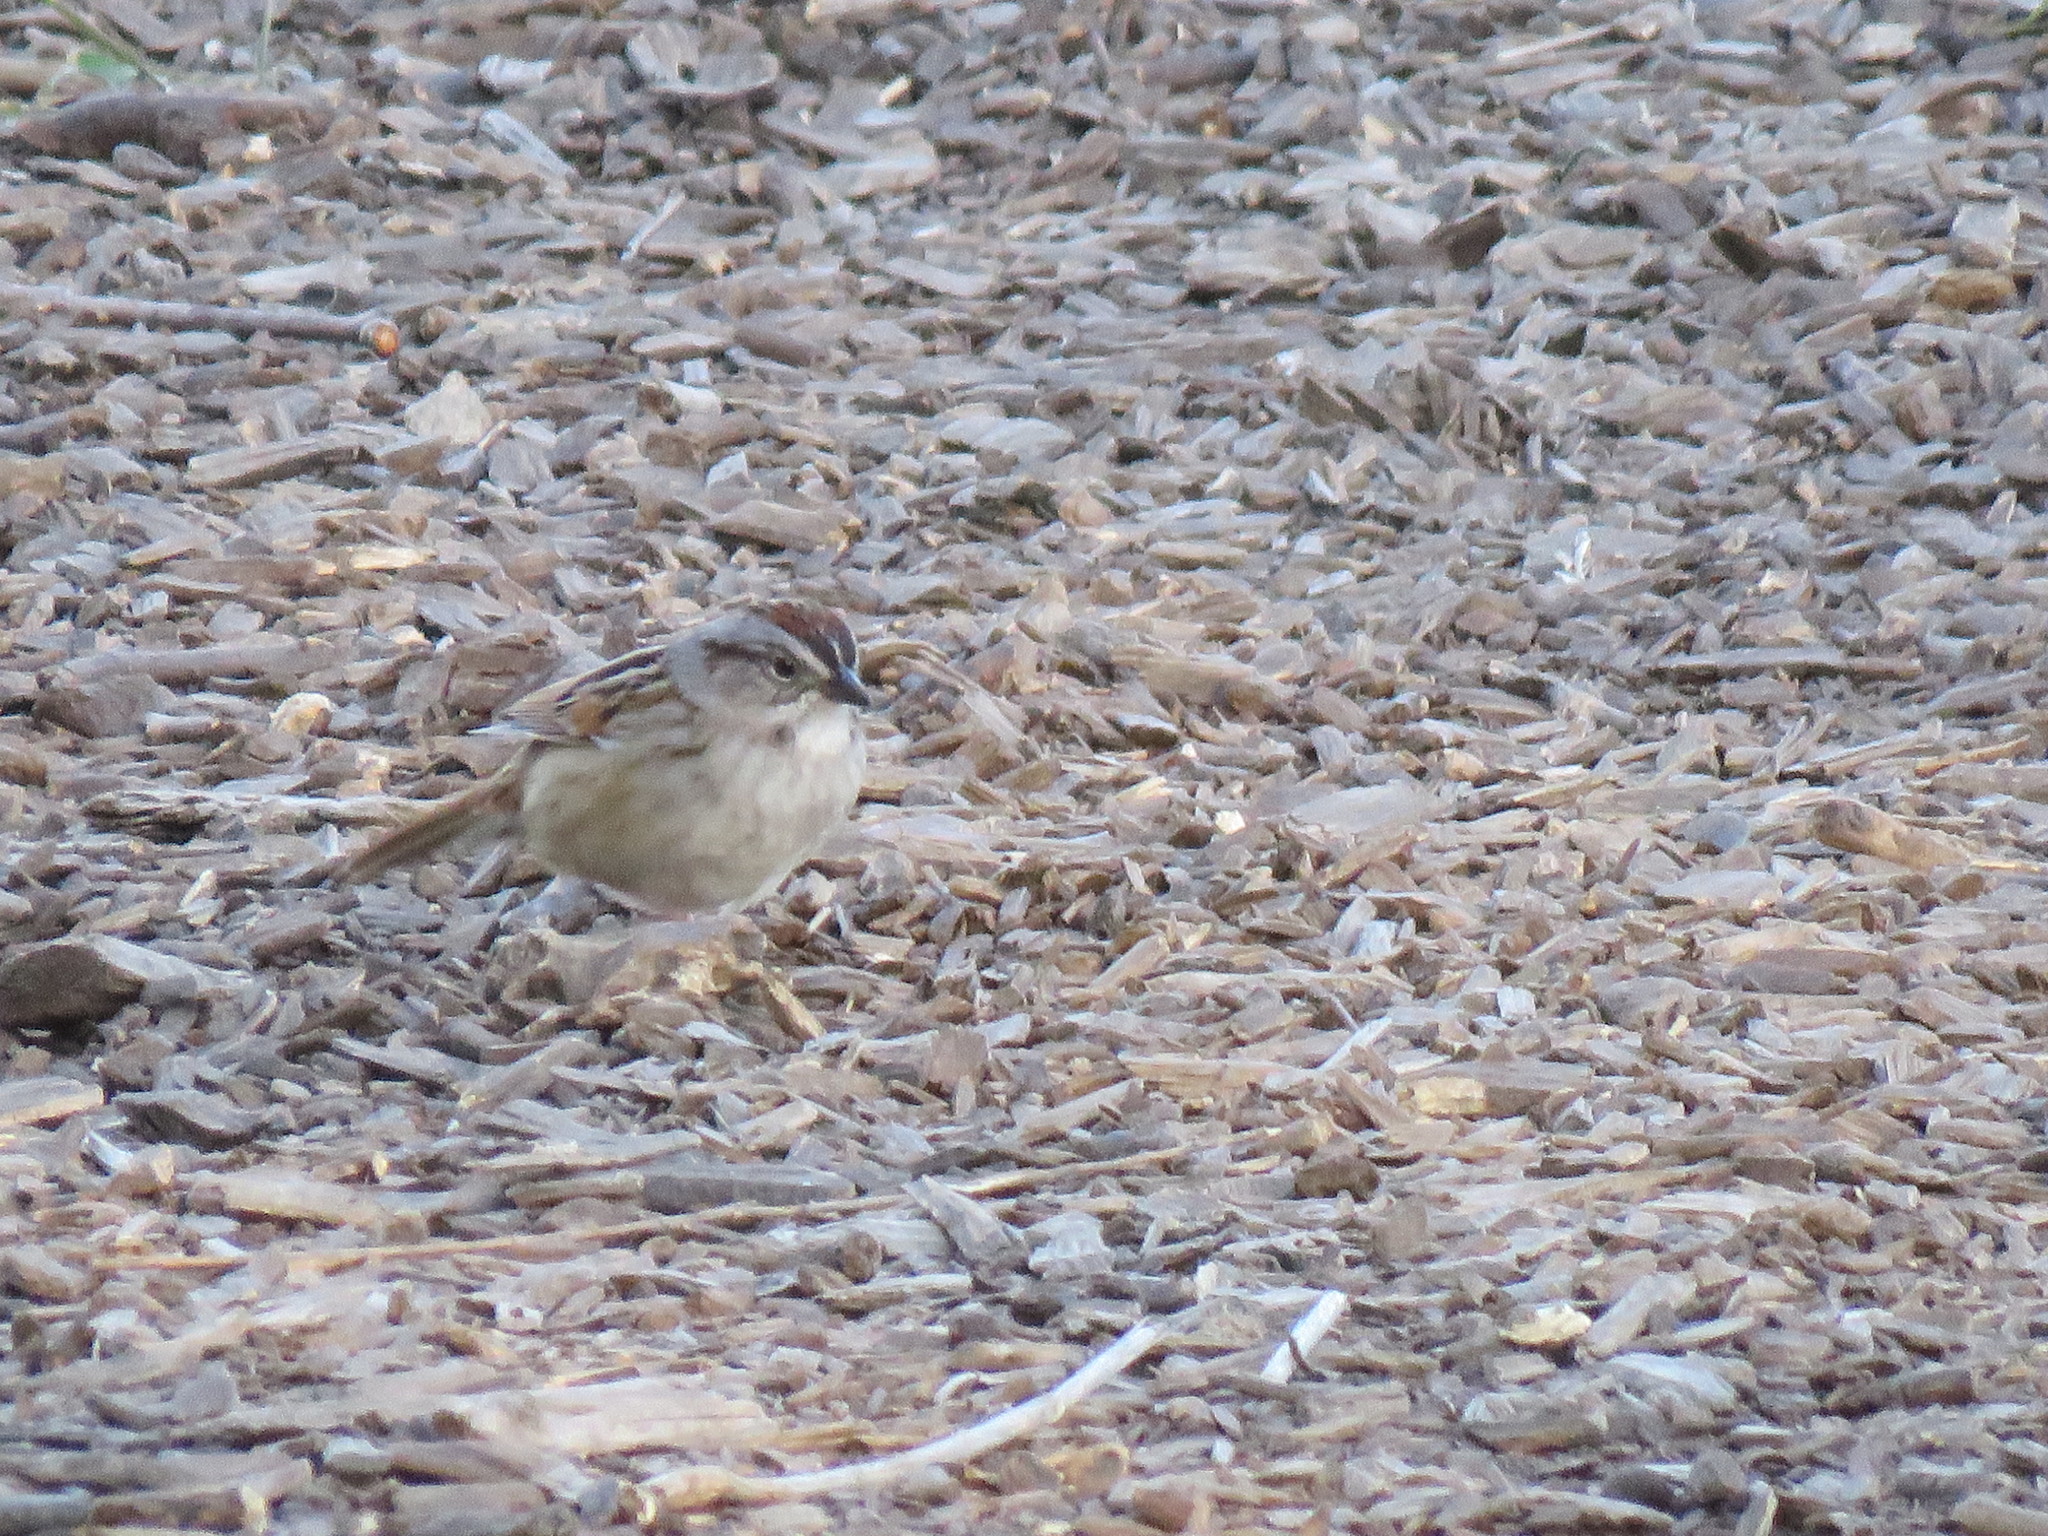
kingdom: Animalia
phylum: Chordata
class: Aves
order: Passeriformes
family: Passerellidae
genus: Melospiza
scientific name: Melospiza georgiana
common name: Swamp sparrow
